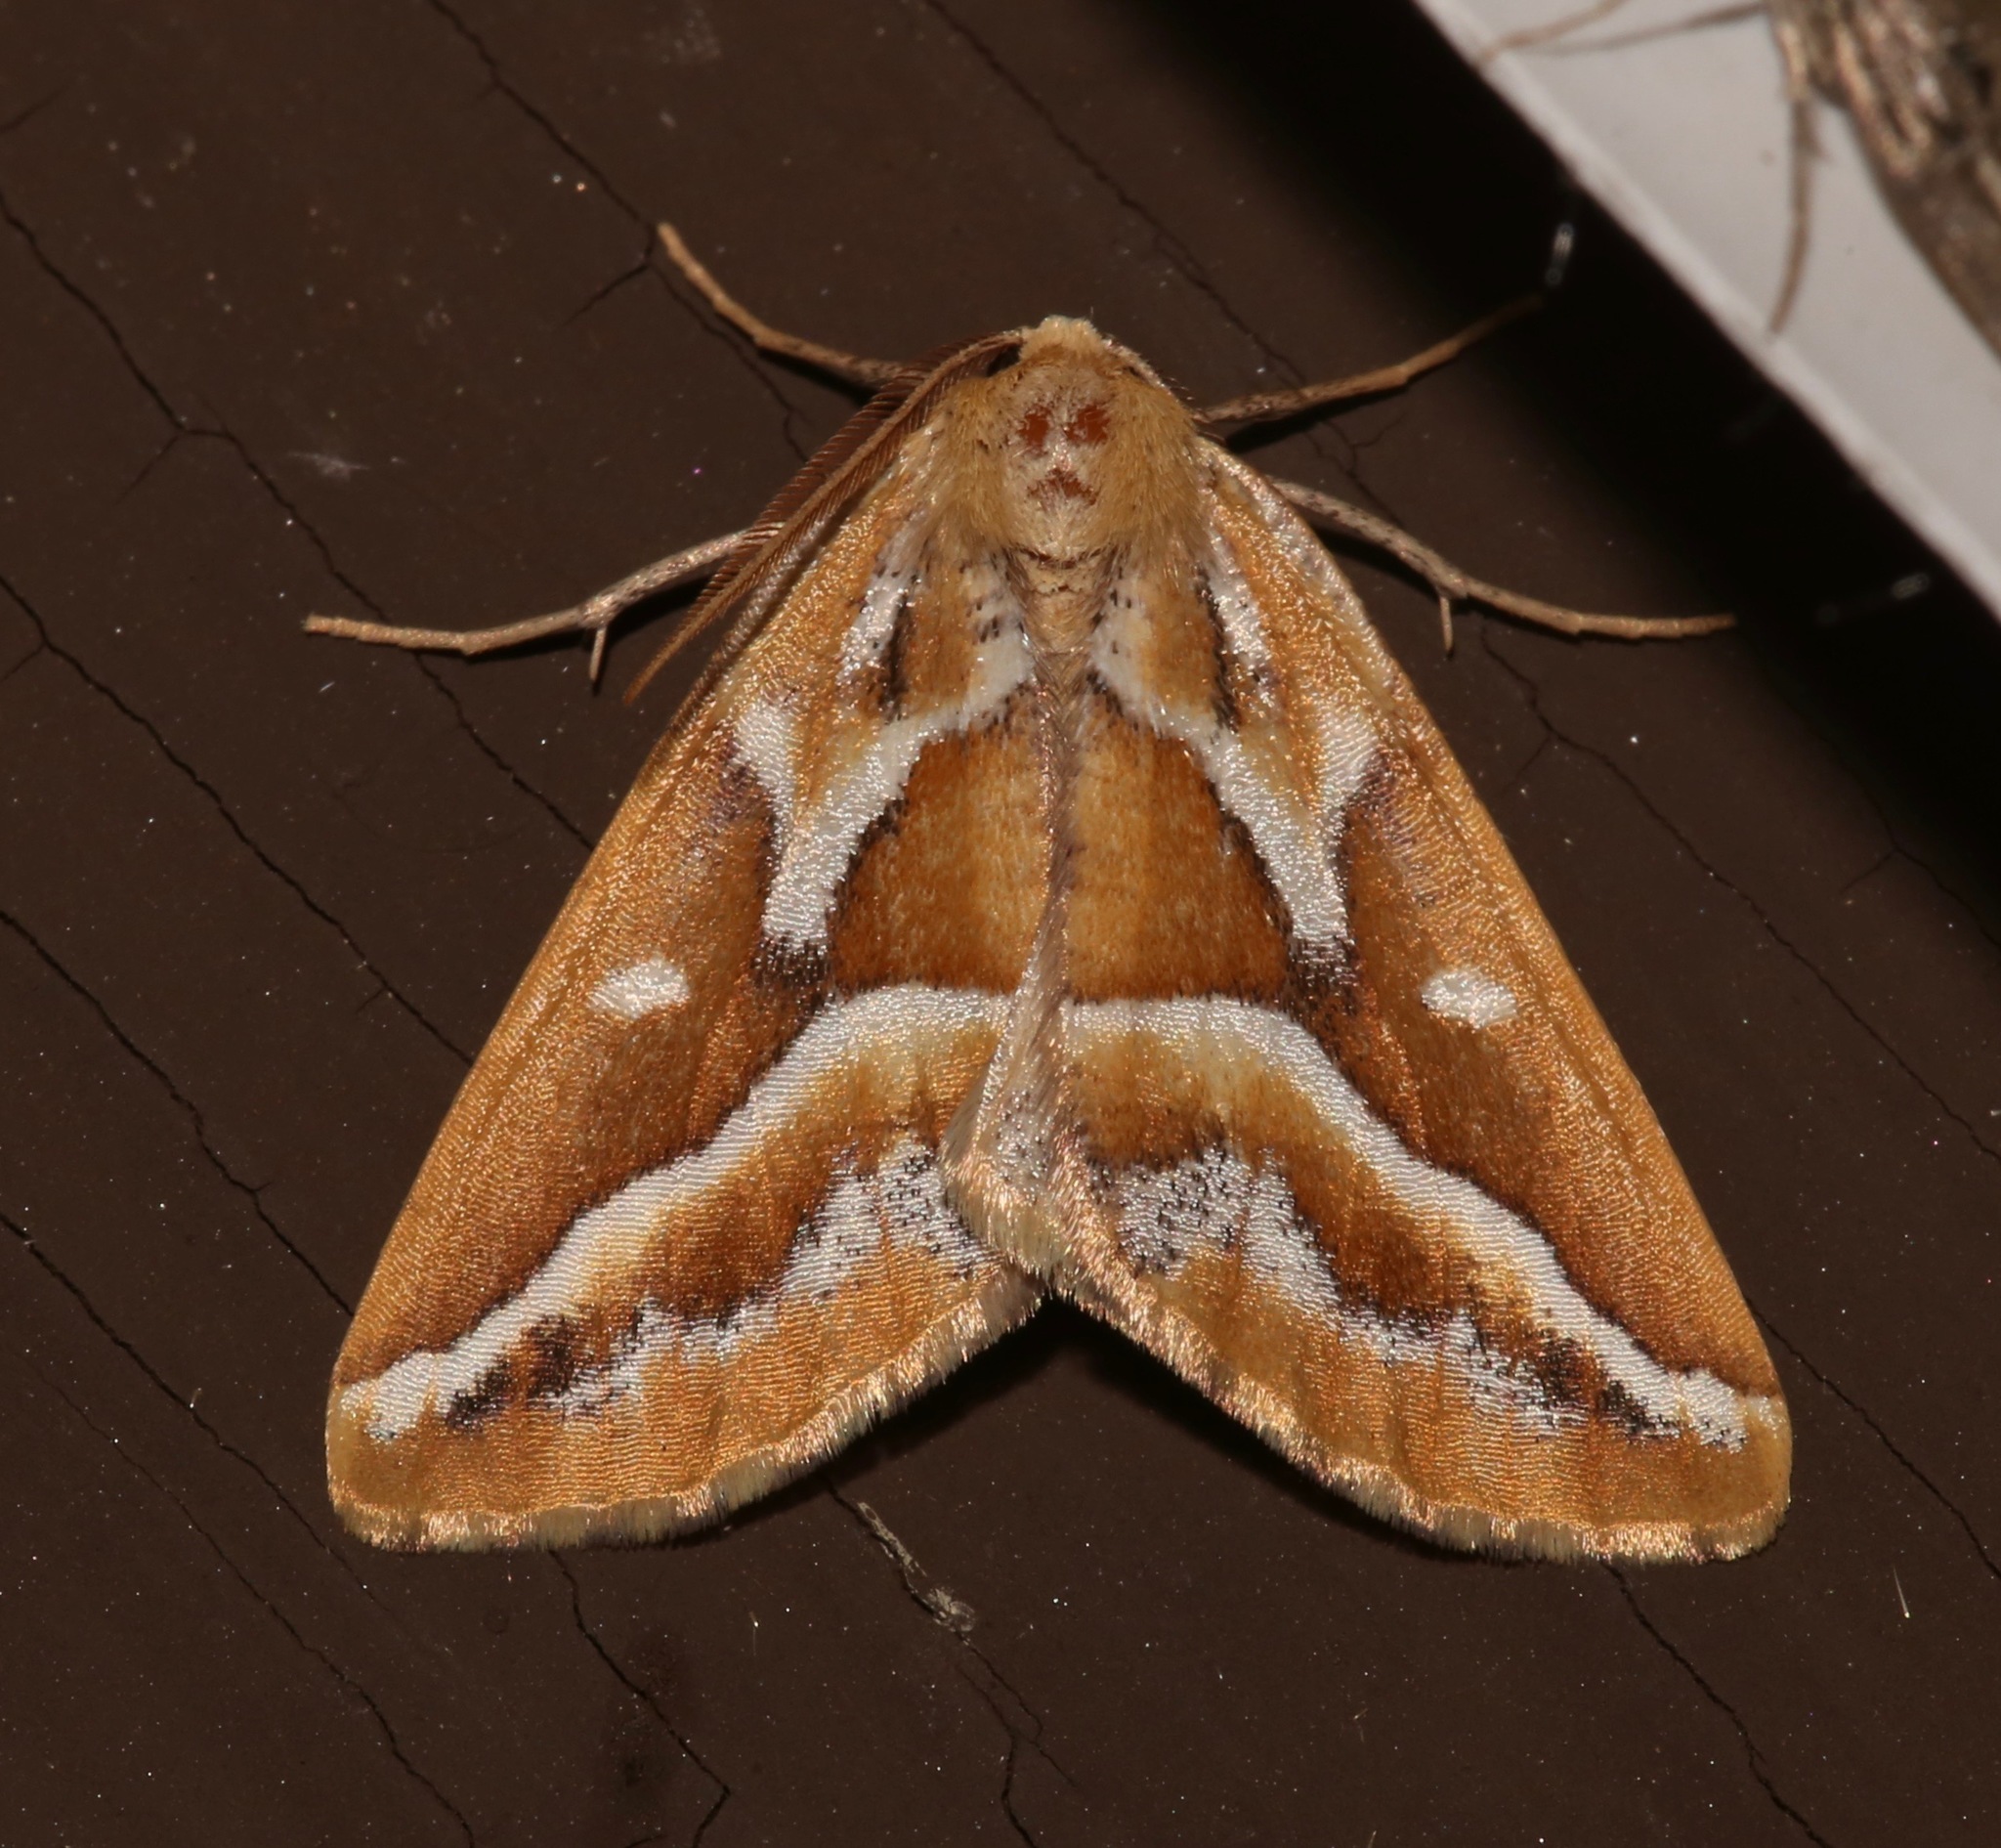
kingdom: Animalia
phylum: Arthropoda
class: Insecta
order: Lepidoptera
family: Geometridae
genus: Caripeta
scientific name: Caripeta angustiorata
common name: Brown pine looper
